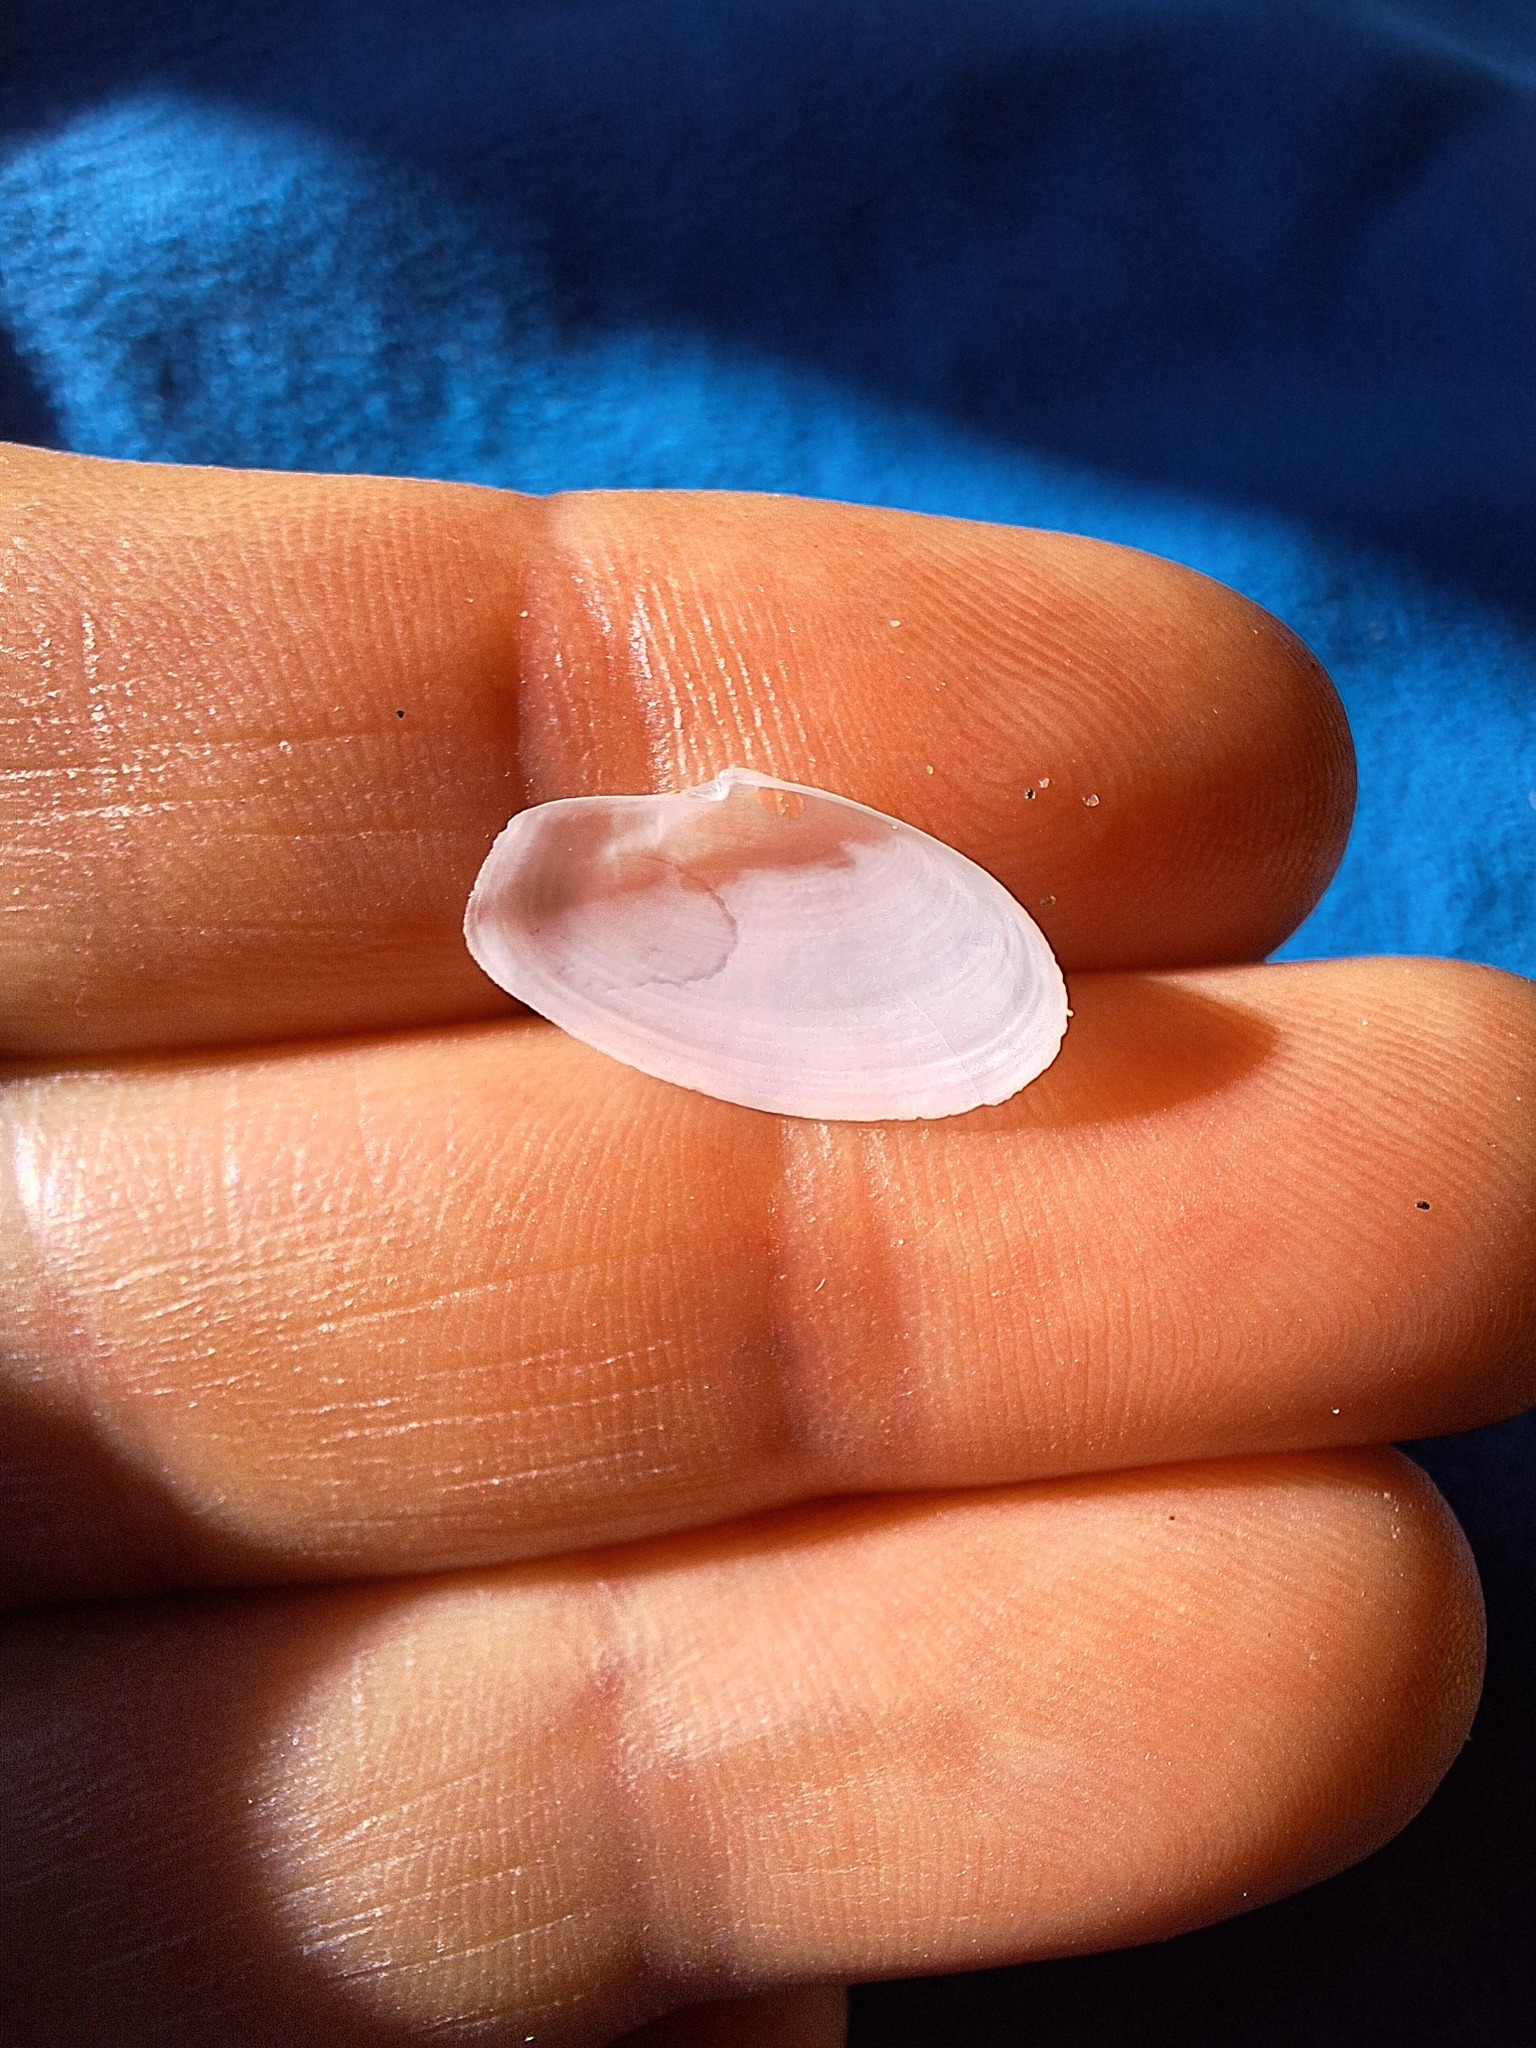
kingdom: Animalia
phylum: Mollusca
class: Bivalvia
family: Thraciidae
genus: Thracia
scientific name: Thracia phaseolina
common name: Kidneybean thracia
